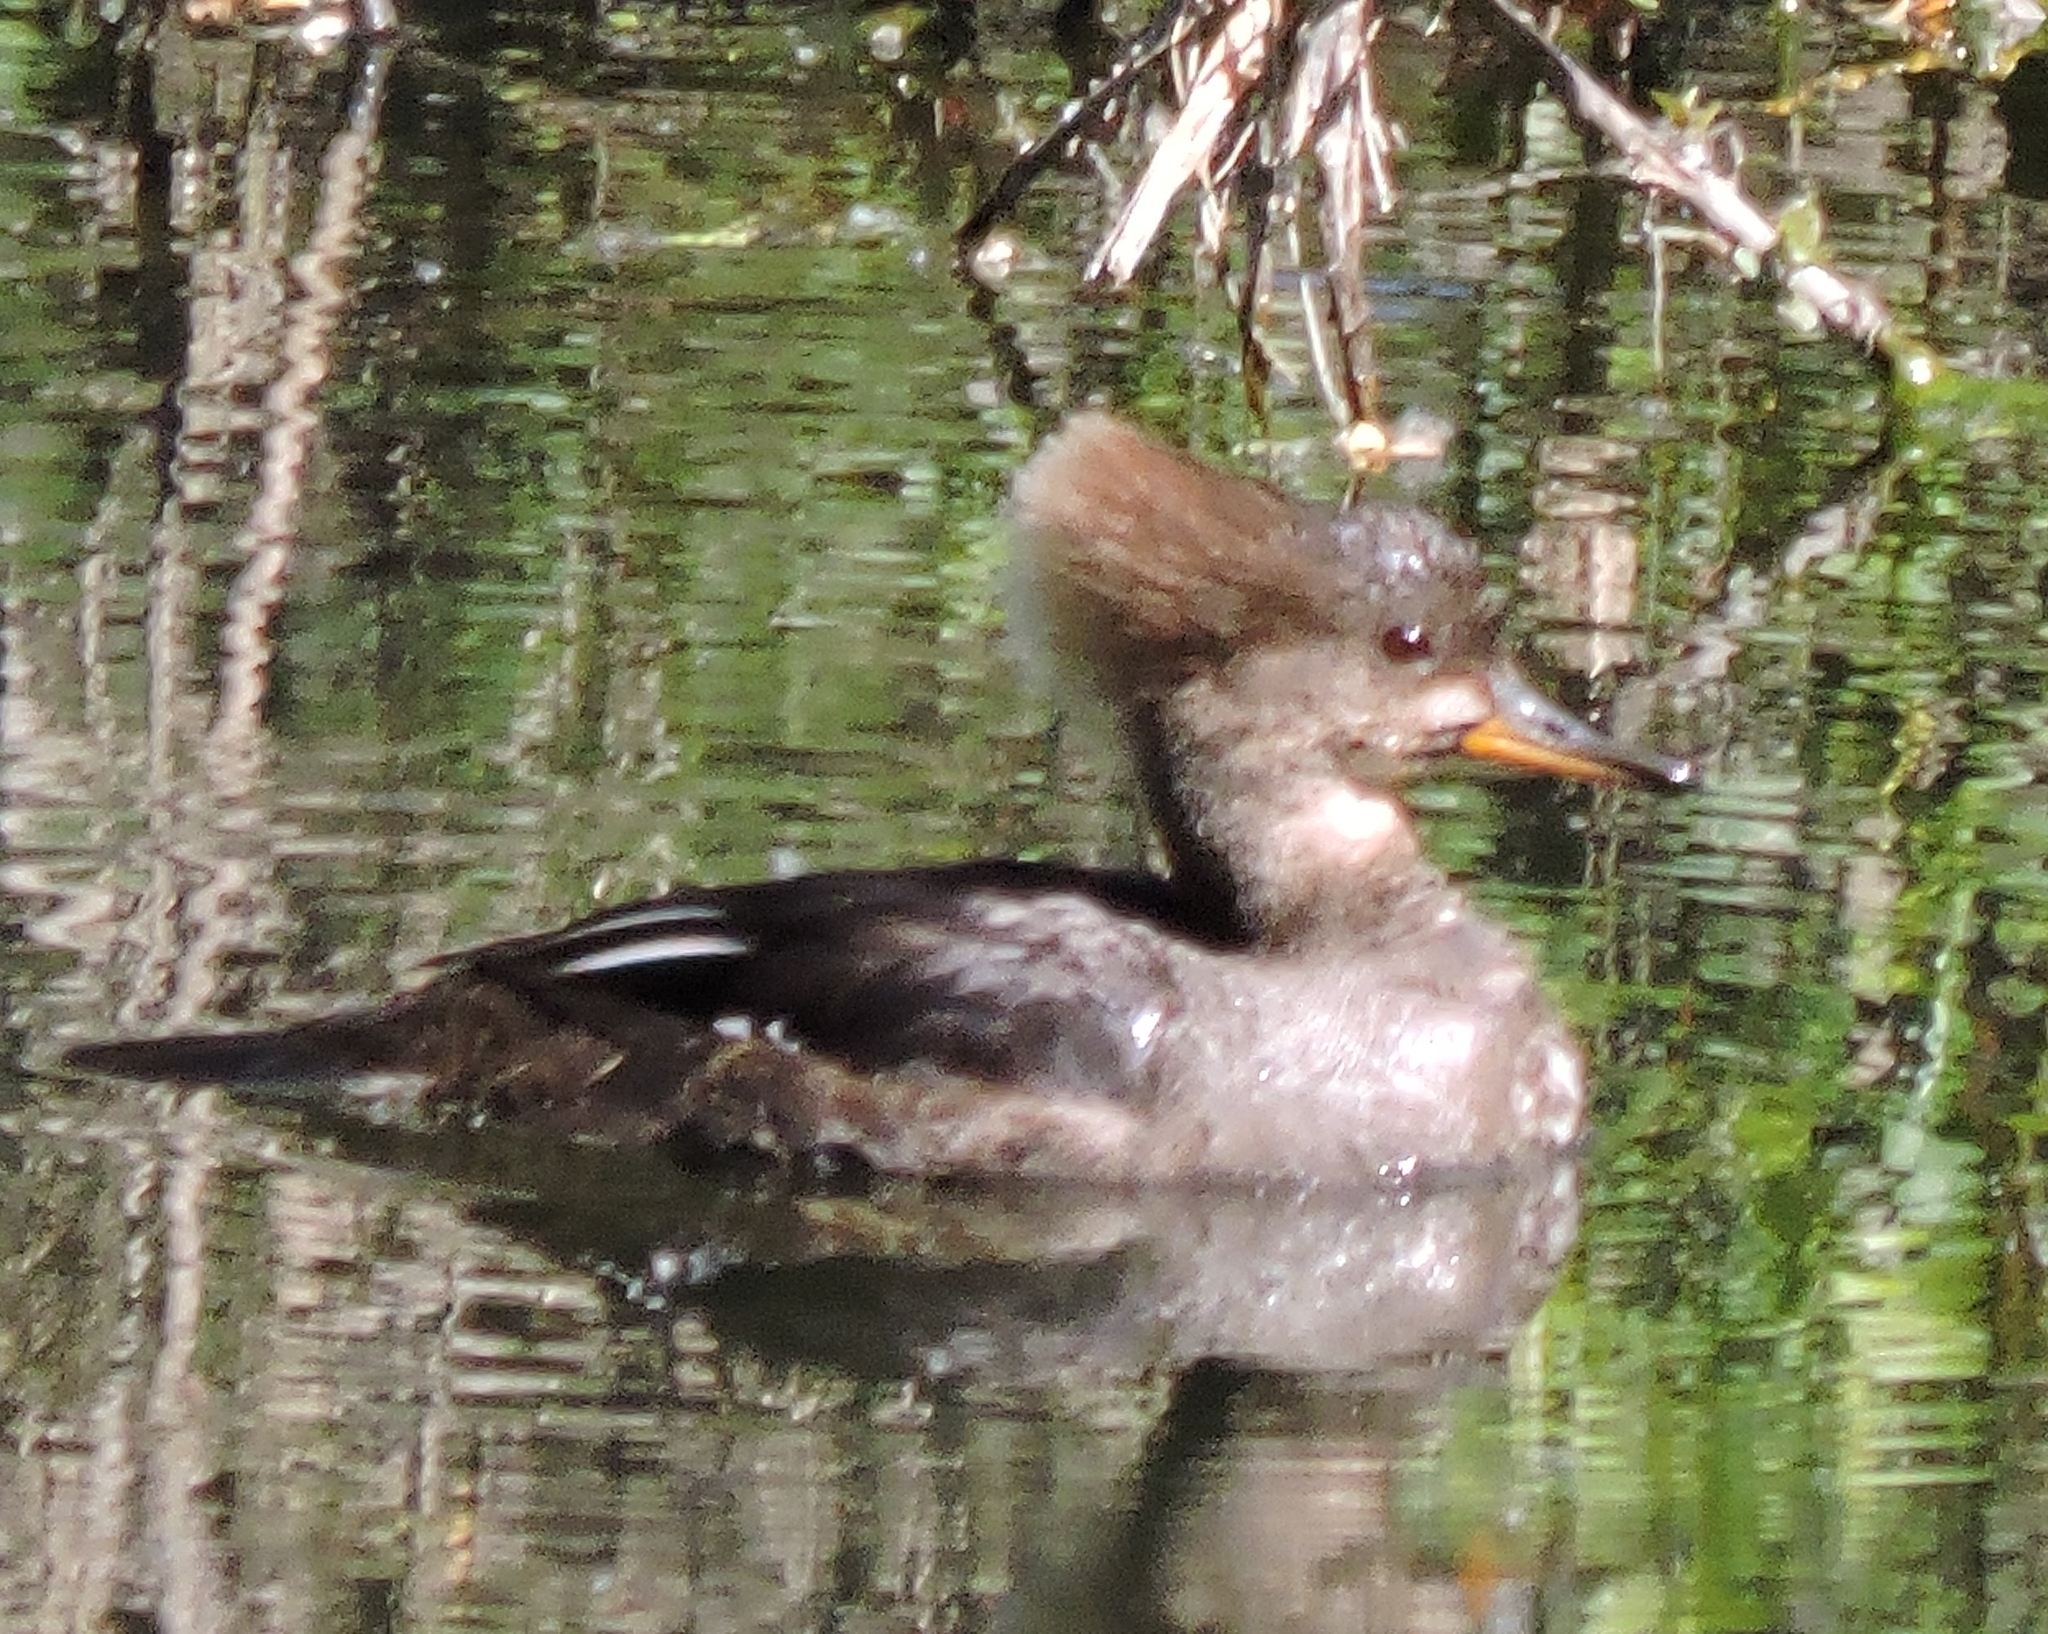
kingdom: Animalia
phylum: Chordata
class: Aves
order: Anseriformes
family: Anatidae
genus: Lophodytes
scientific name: Lophodytes cucullatus
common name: Hooded merganser
